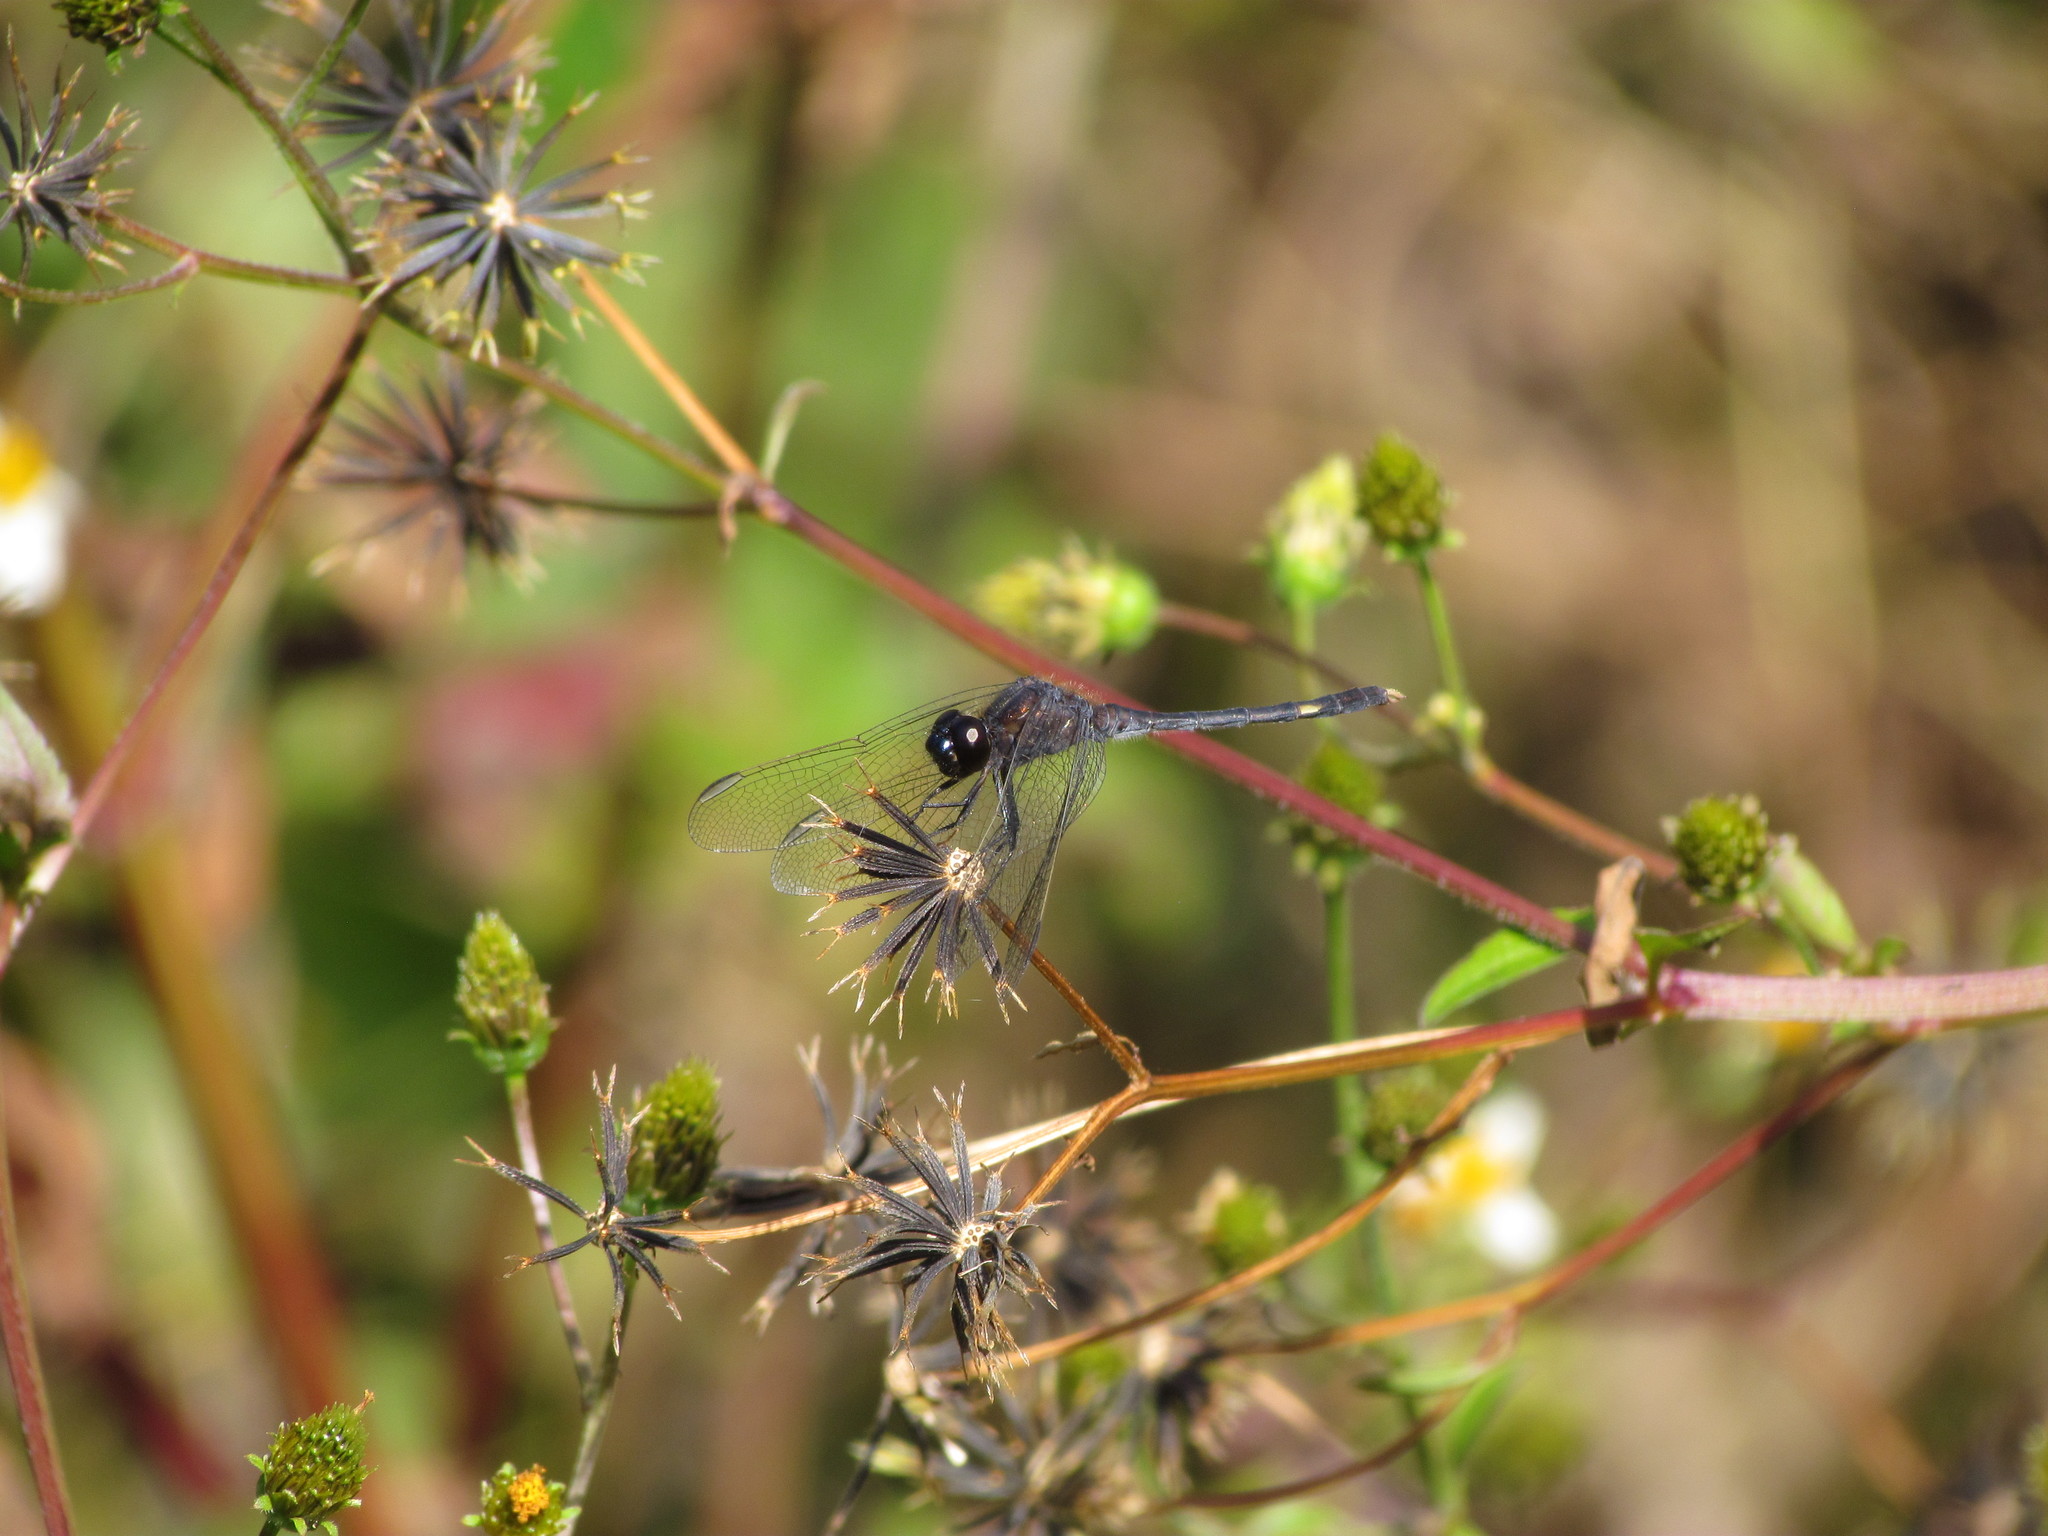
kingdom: Animalia
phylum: Arthropoda
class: Insecta
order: Odonata
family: Libellulidae
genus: Erythrodiplax
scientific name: Erythrodiplax nigricans
